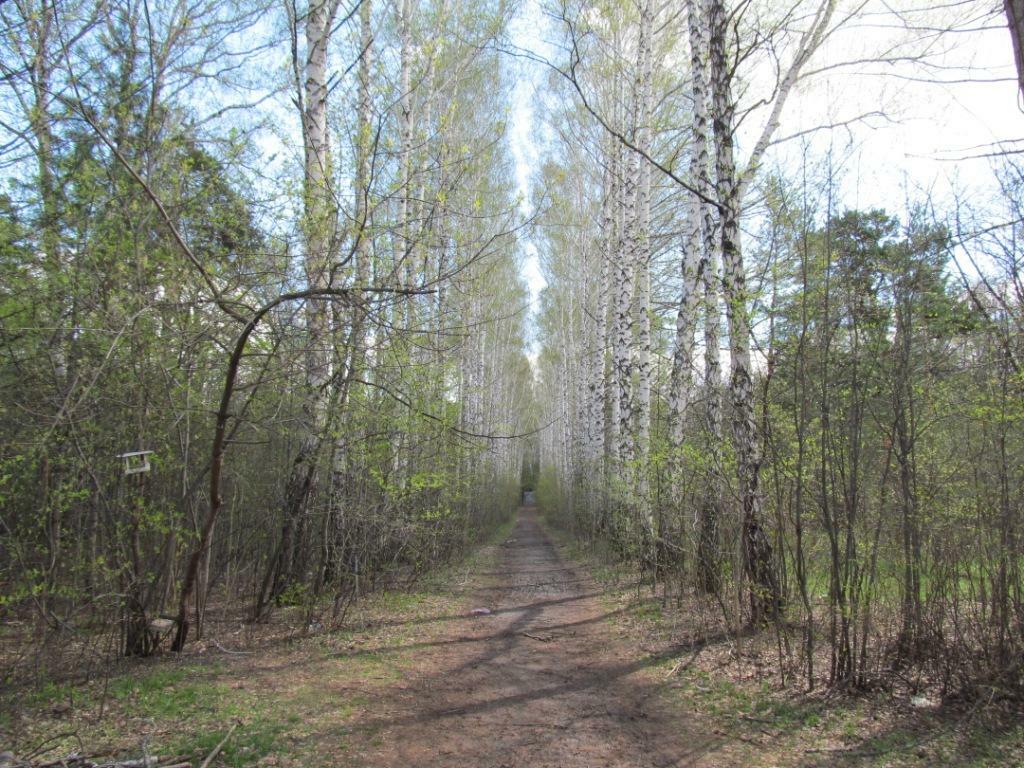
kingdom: Plantae
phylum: Tracheophyta
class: Magnoliopsida
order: Fagales
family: Betulaceae
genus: Betula
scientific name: Betula pendula
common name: Silver birch
